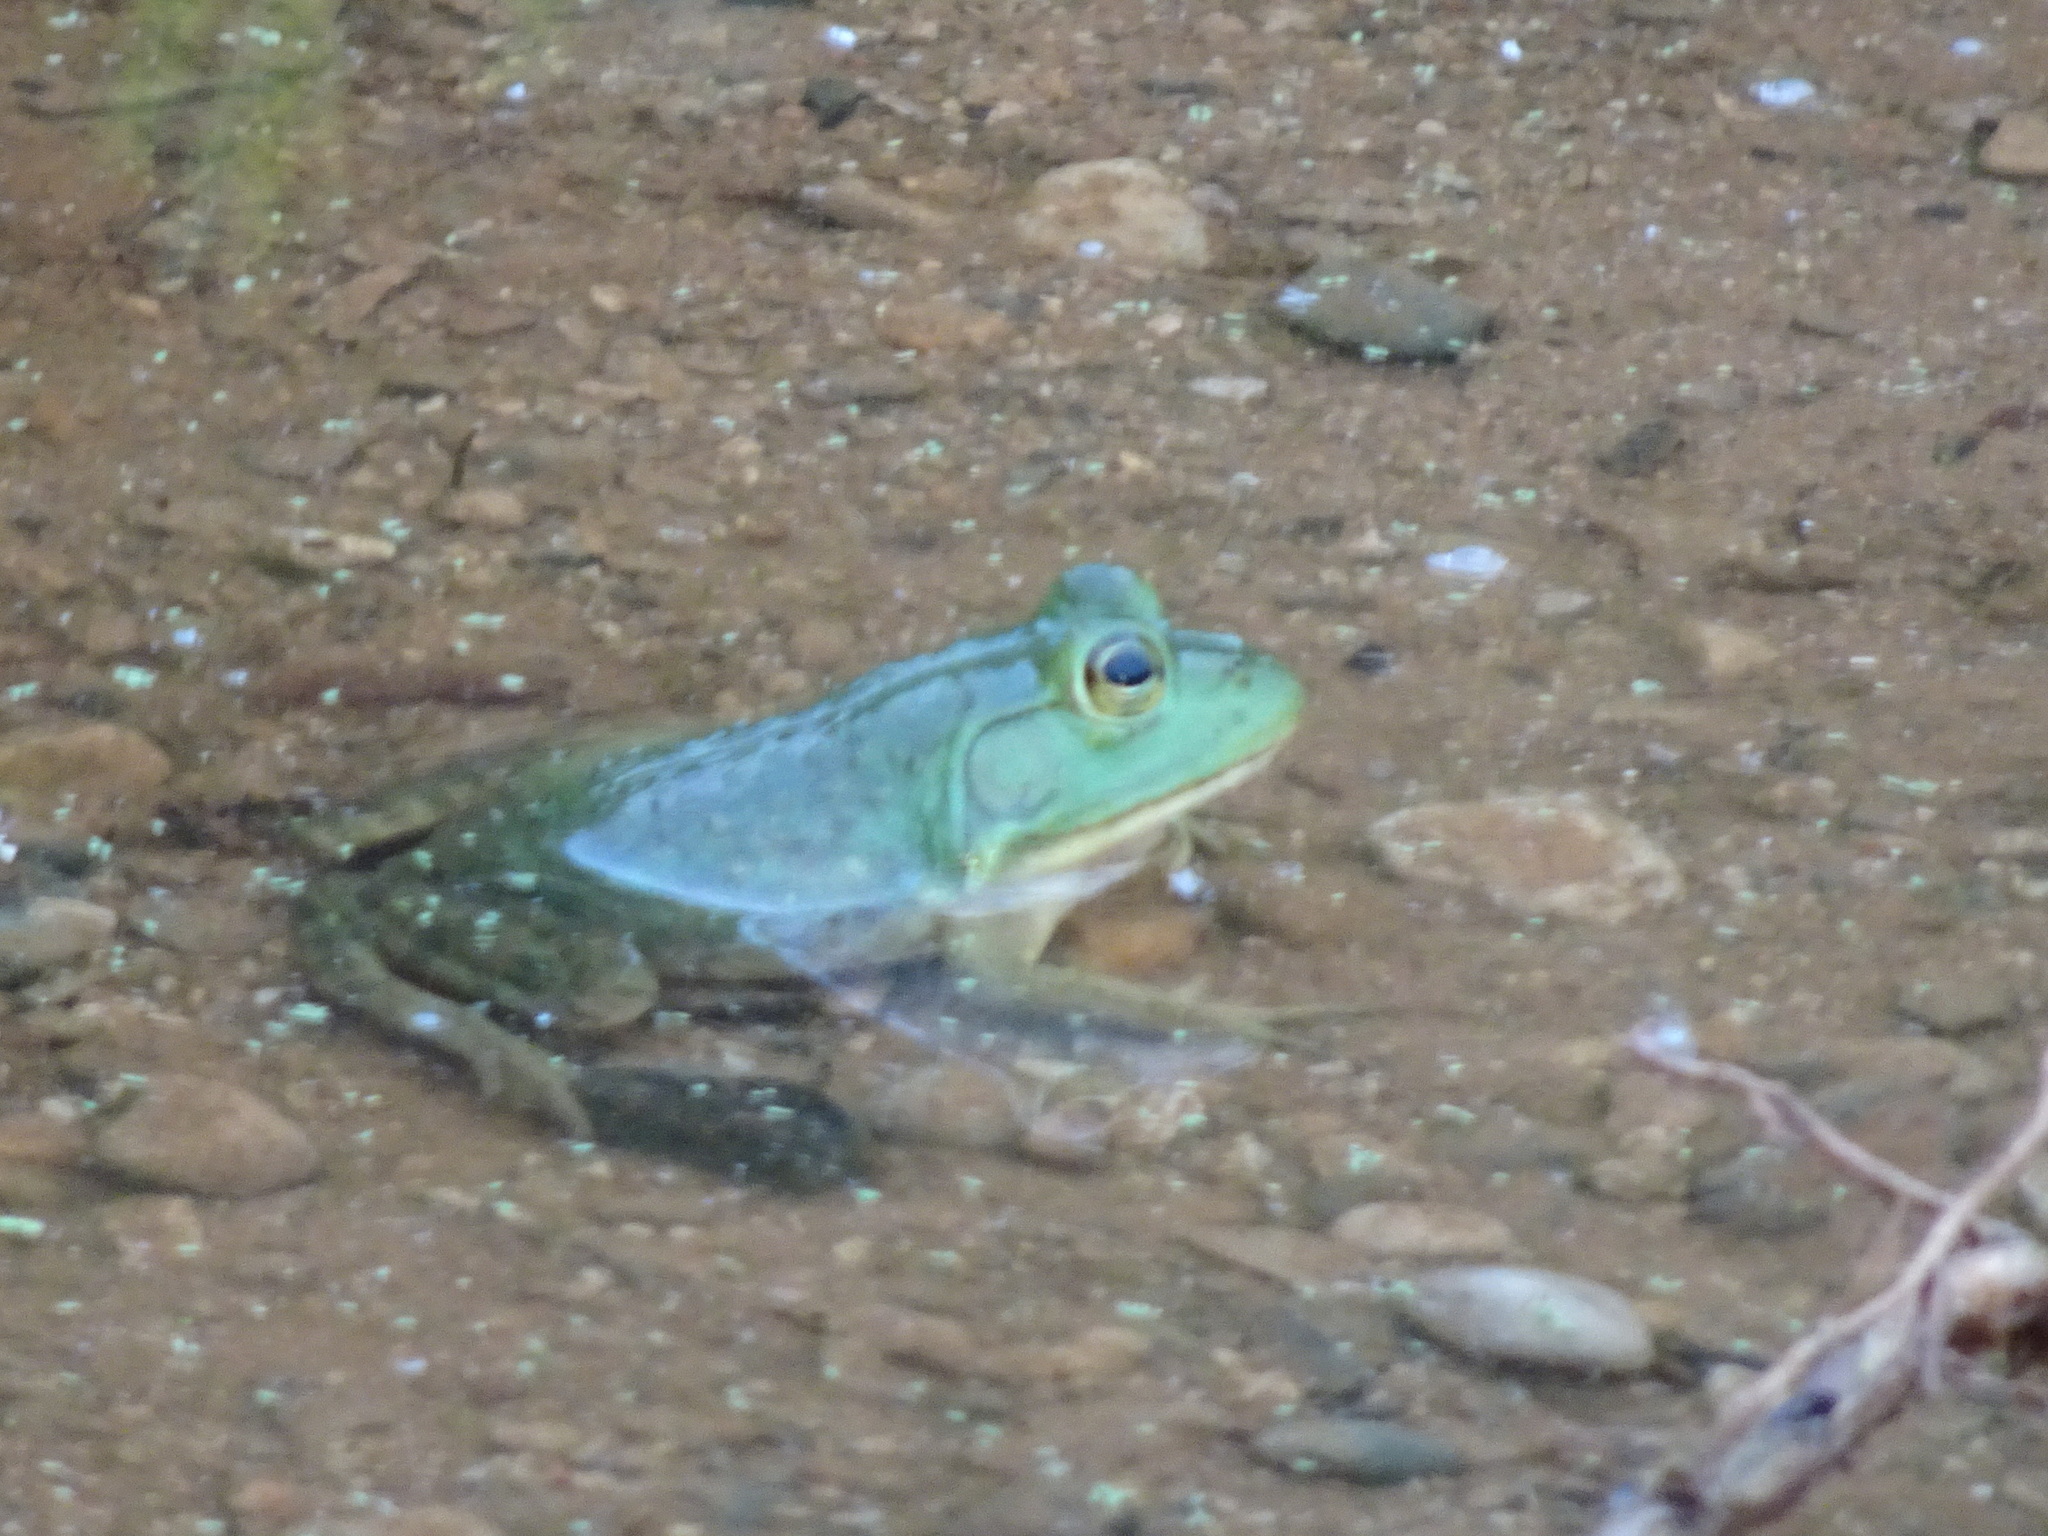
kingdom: Animalia
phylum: Chordata
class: Amphibia
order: Anura
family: Ranidae
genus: Lithobates
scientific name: Lithobates catesbeianus
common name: American bullfrog
